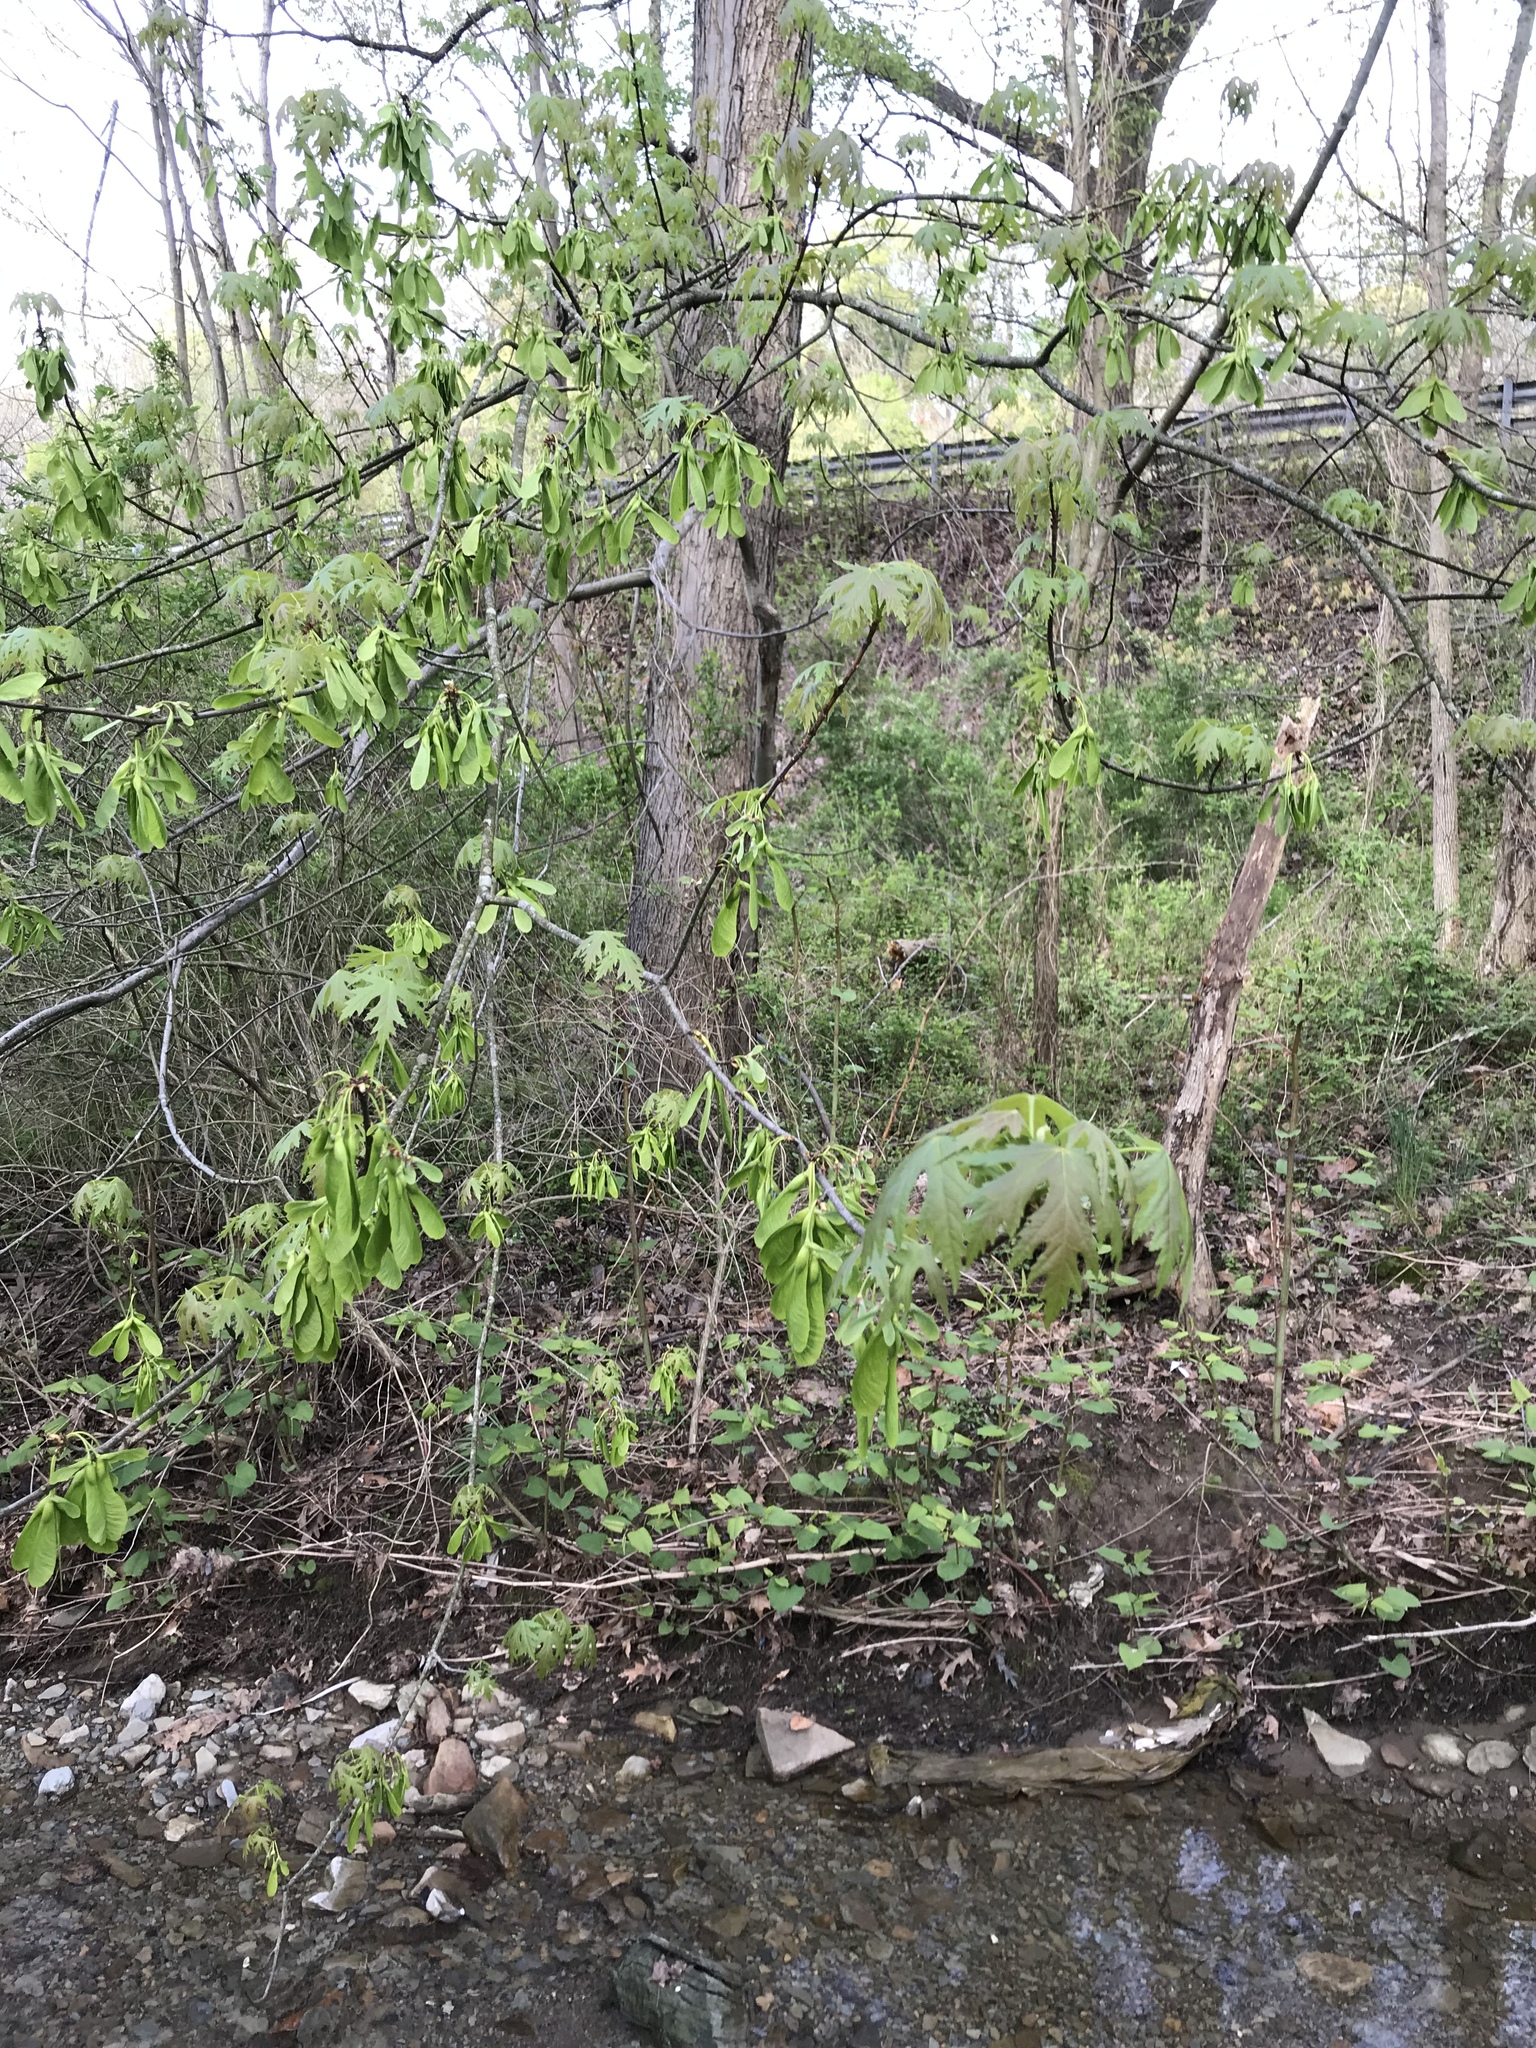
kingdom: Plantae
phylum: Tracheophyta
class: Magnoliopsida
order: Sapindales
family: Sapindaceae
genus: Acer
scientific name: Acer saccharinum
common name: Silver maple
